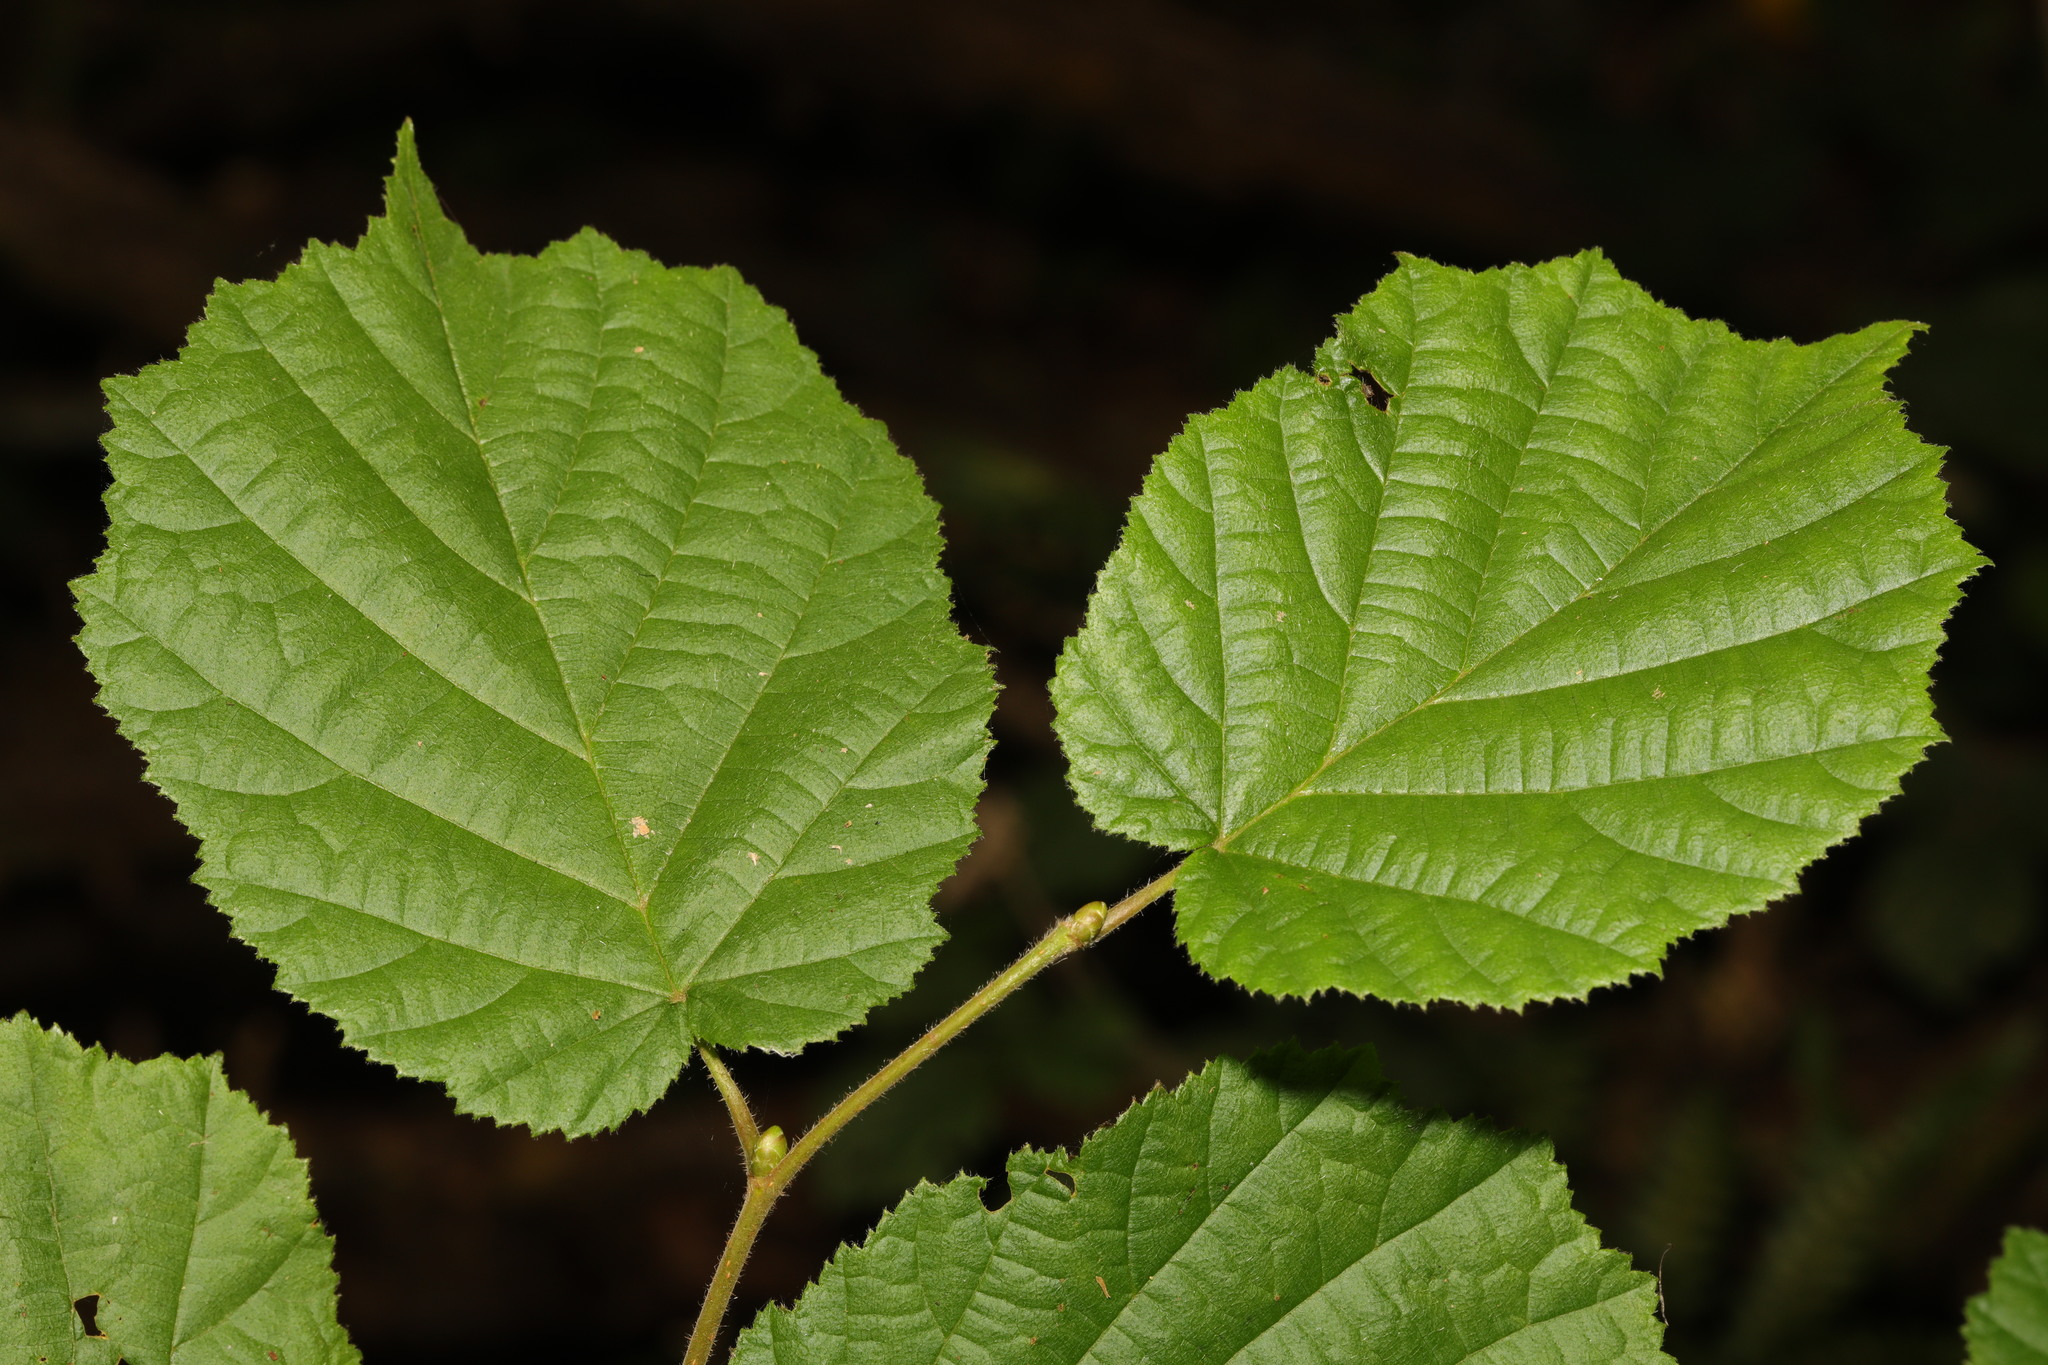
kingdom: Plantae
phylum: Tracheophyta
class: Magnoliopsida
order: Fagales
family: Betulaceae
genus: Corylus
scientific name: Corylus avellana
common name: European hazel
